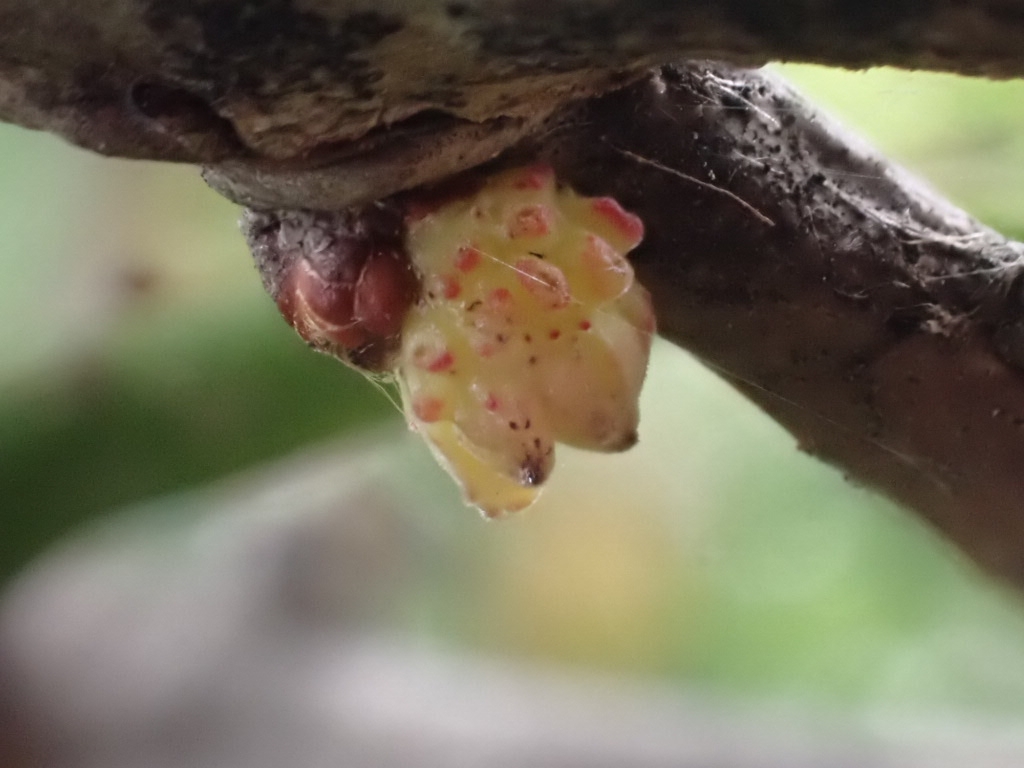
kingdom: Animalia
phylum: Arthropoda
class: Insecta
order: Hymenoptera
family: Cynipidae
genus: Andricus
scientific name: Andricus gemmeus
